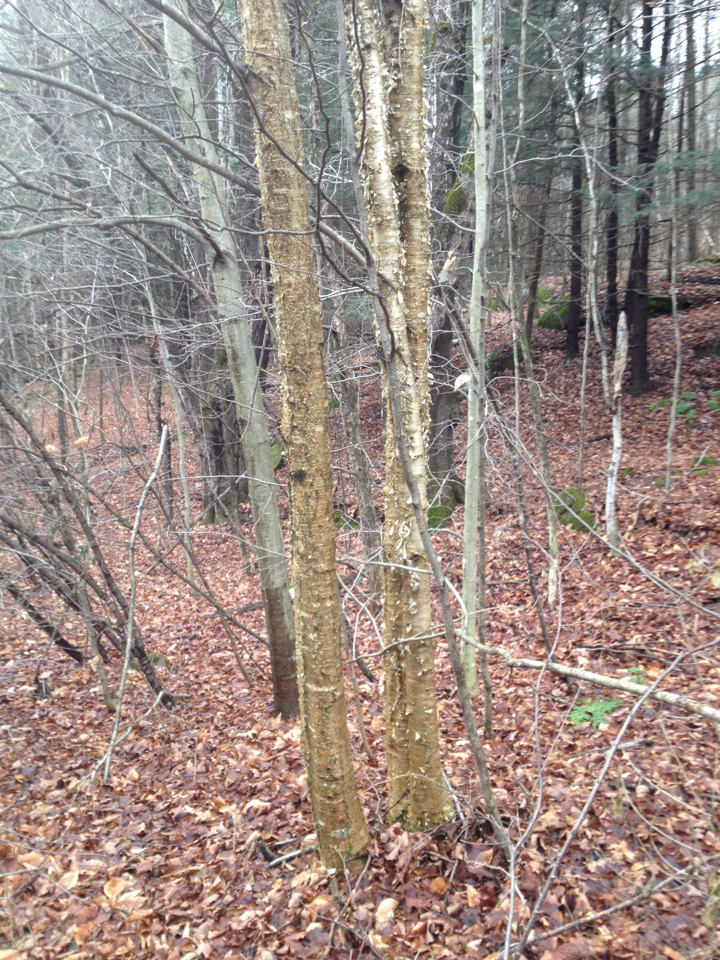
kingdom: Plantae
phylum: Tracheophyta
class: Magnoliopsida
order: Fagales
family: Betulaceae
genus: Betula
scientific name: Betula alleghaniensis
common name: Yellow birch
